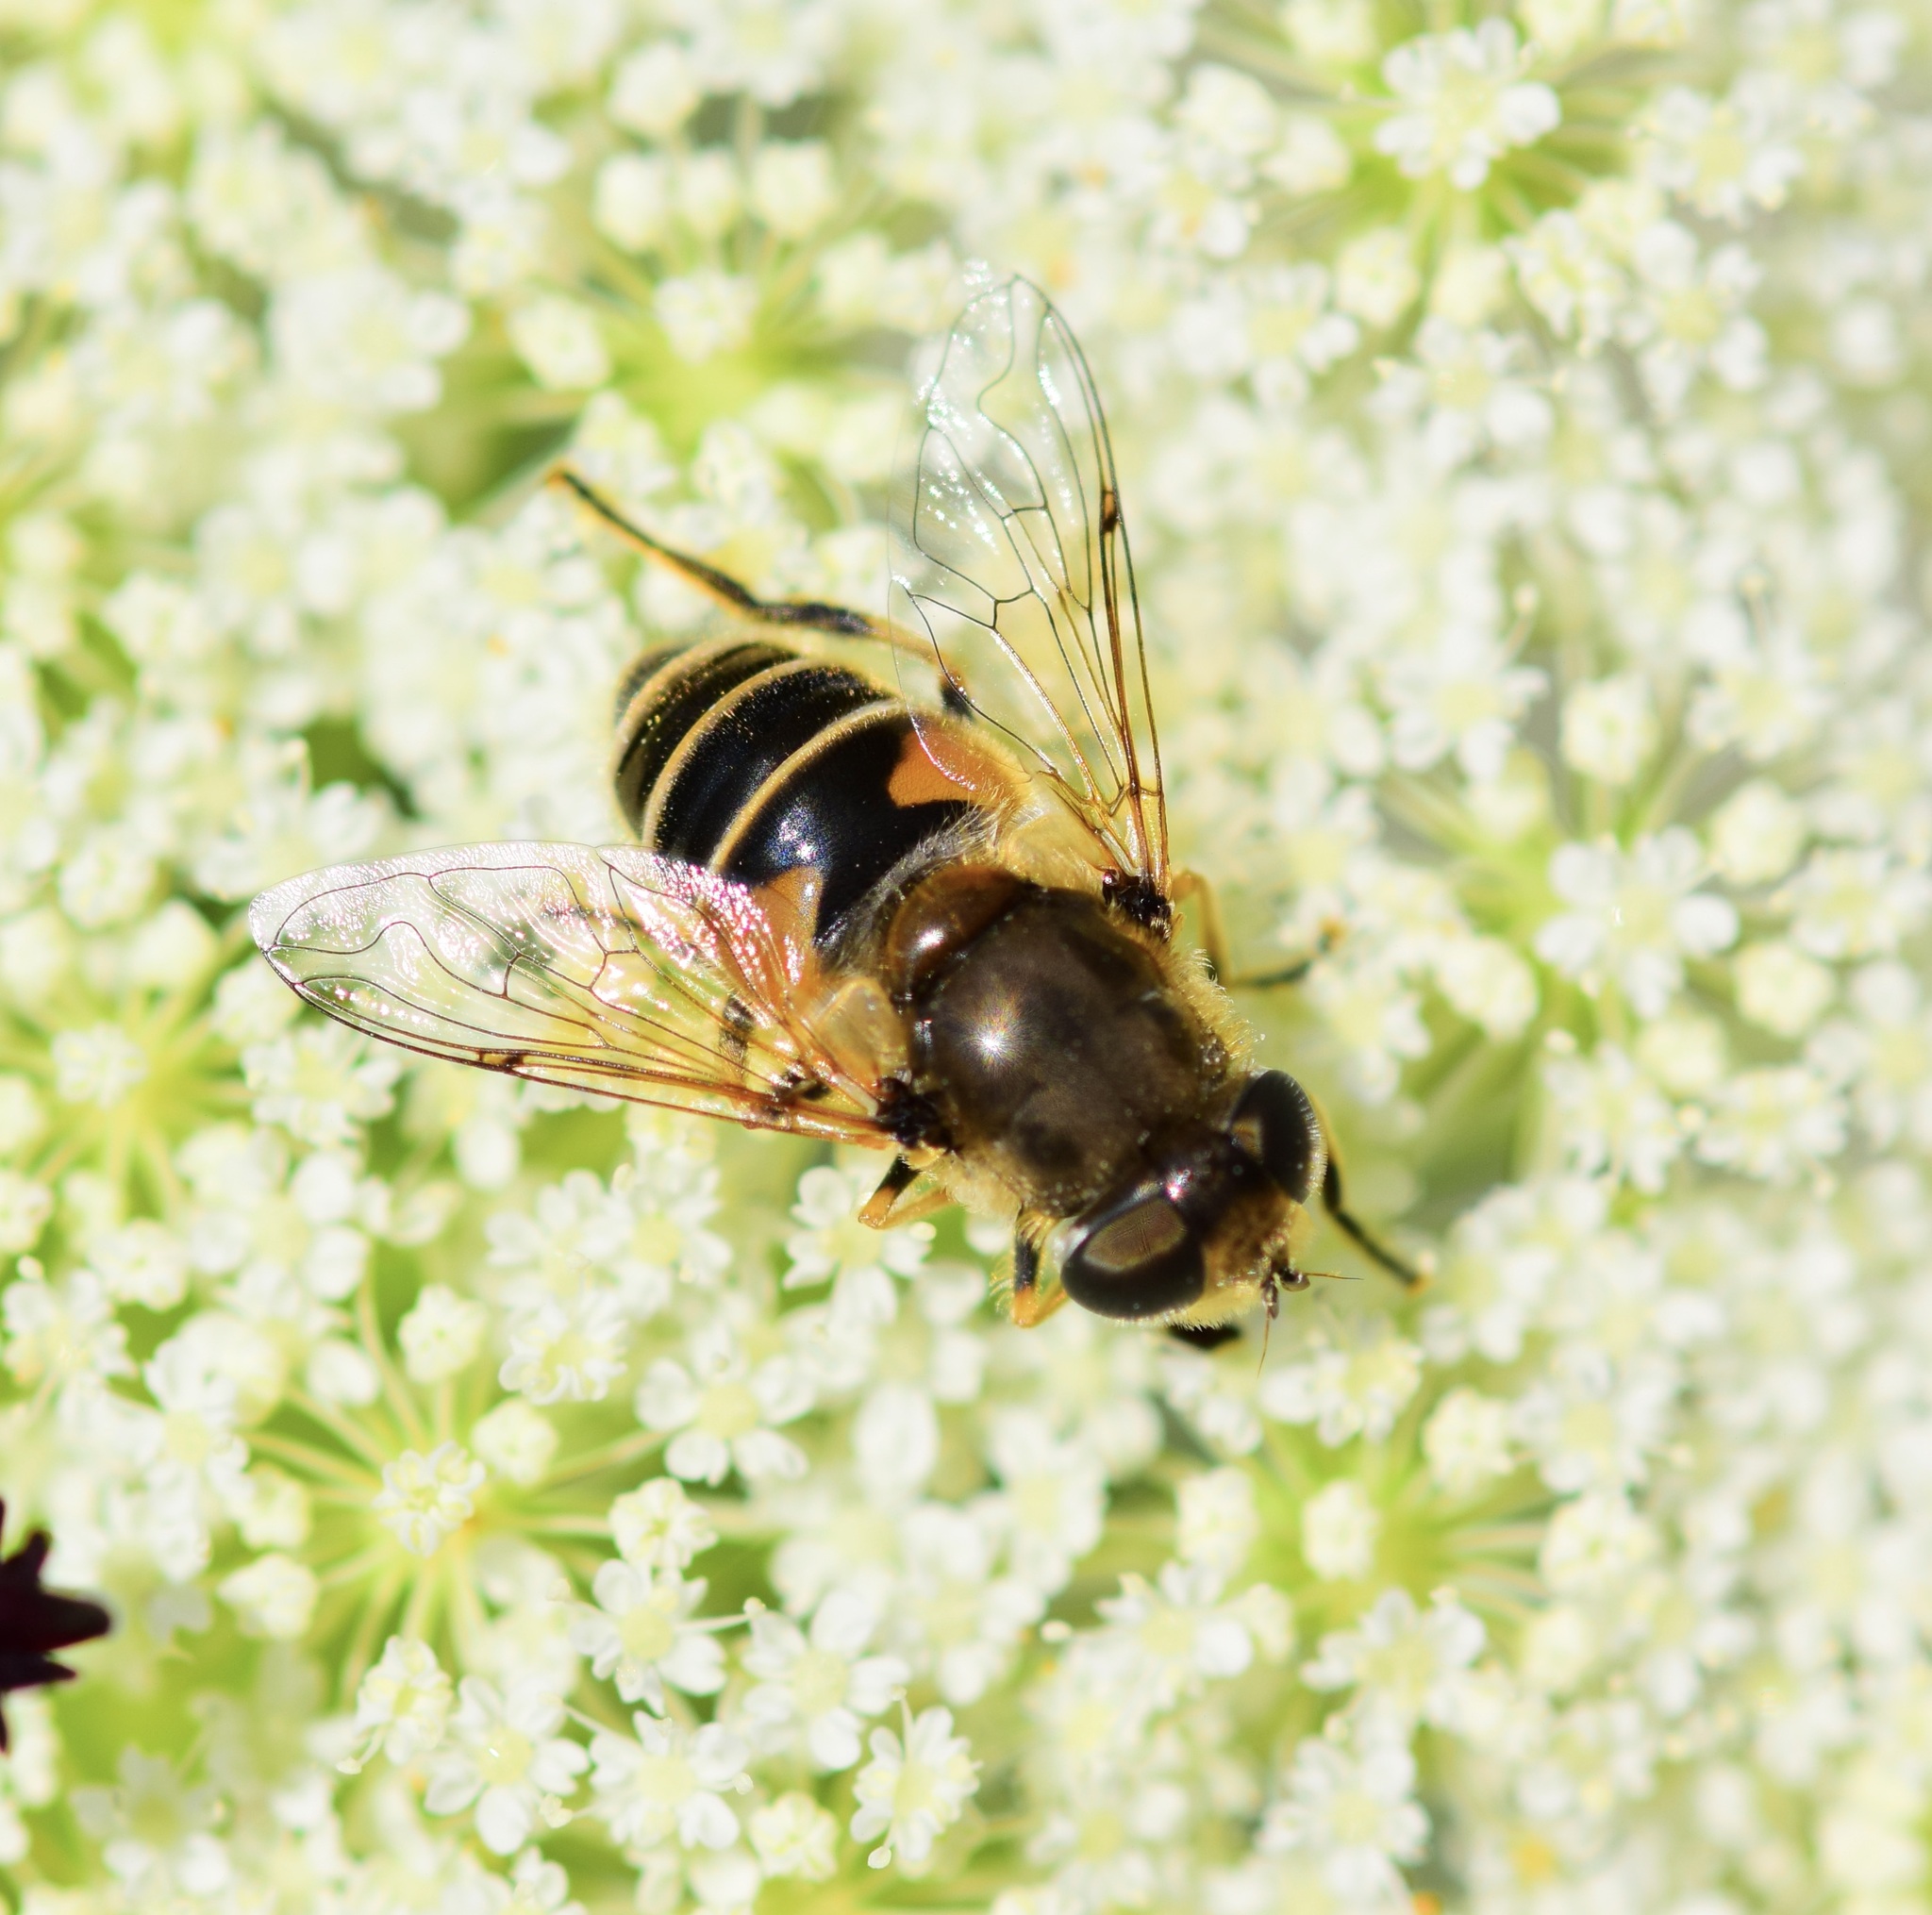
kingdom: Animalia
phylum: Arthropoda
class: Insecta
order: Diptera
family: Syrphidae
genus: Eristalis
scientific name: Eristalis arbustorum
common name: Hover fly
